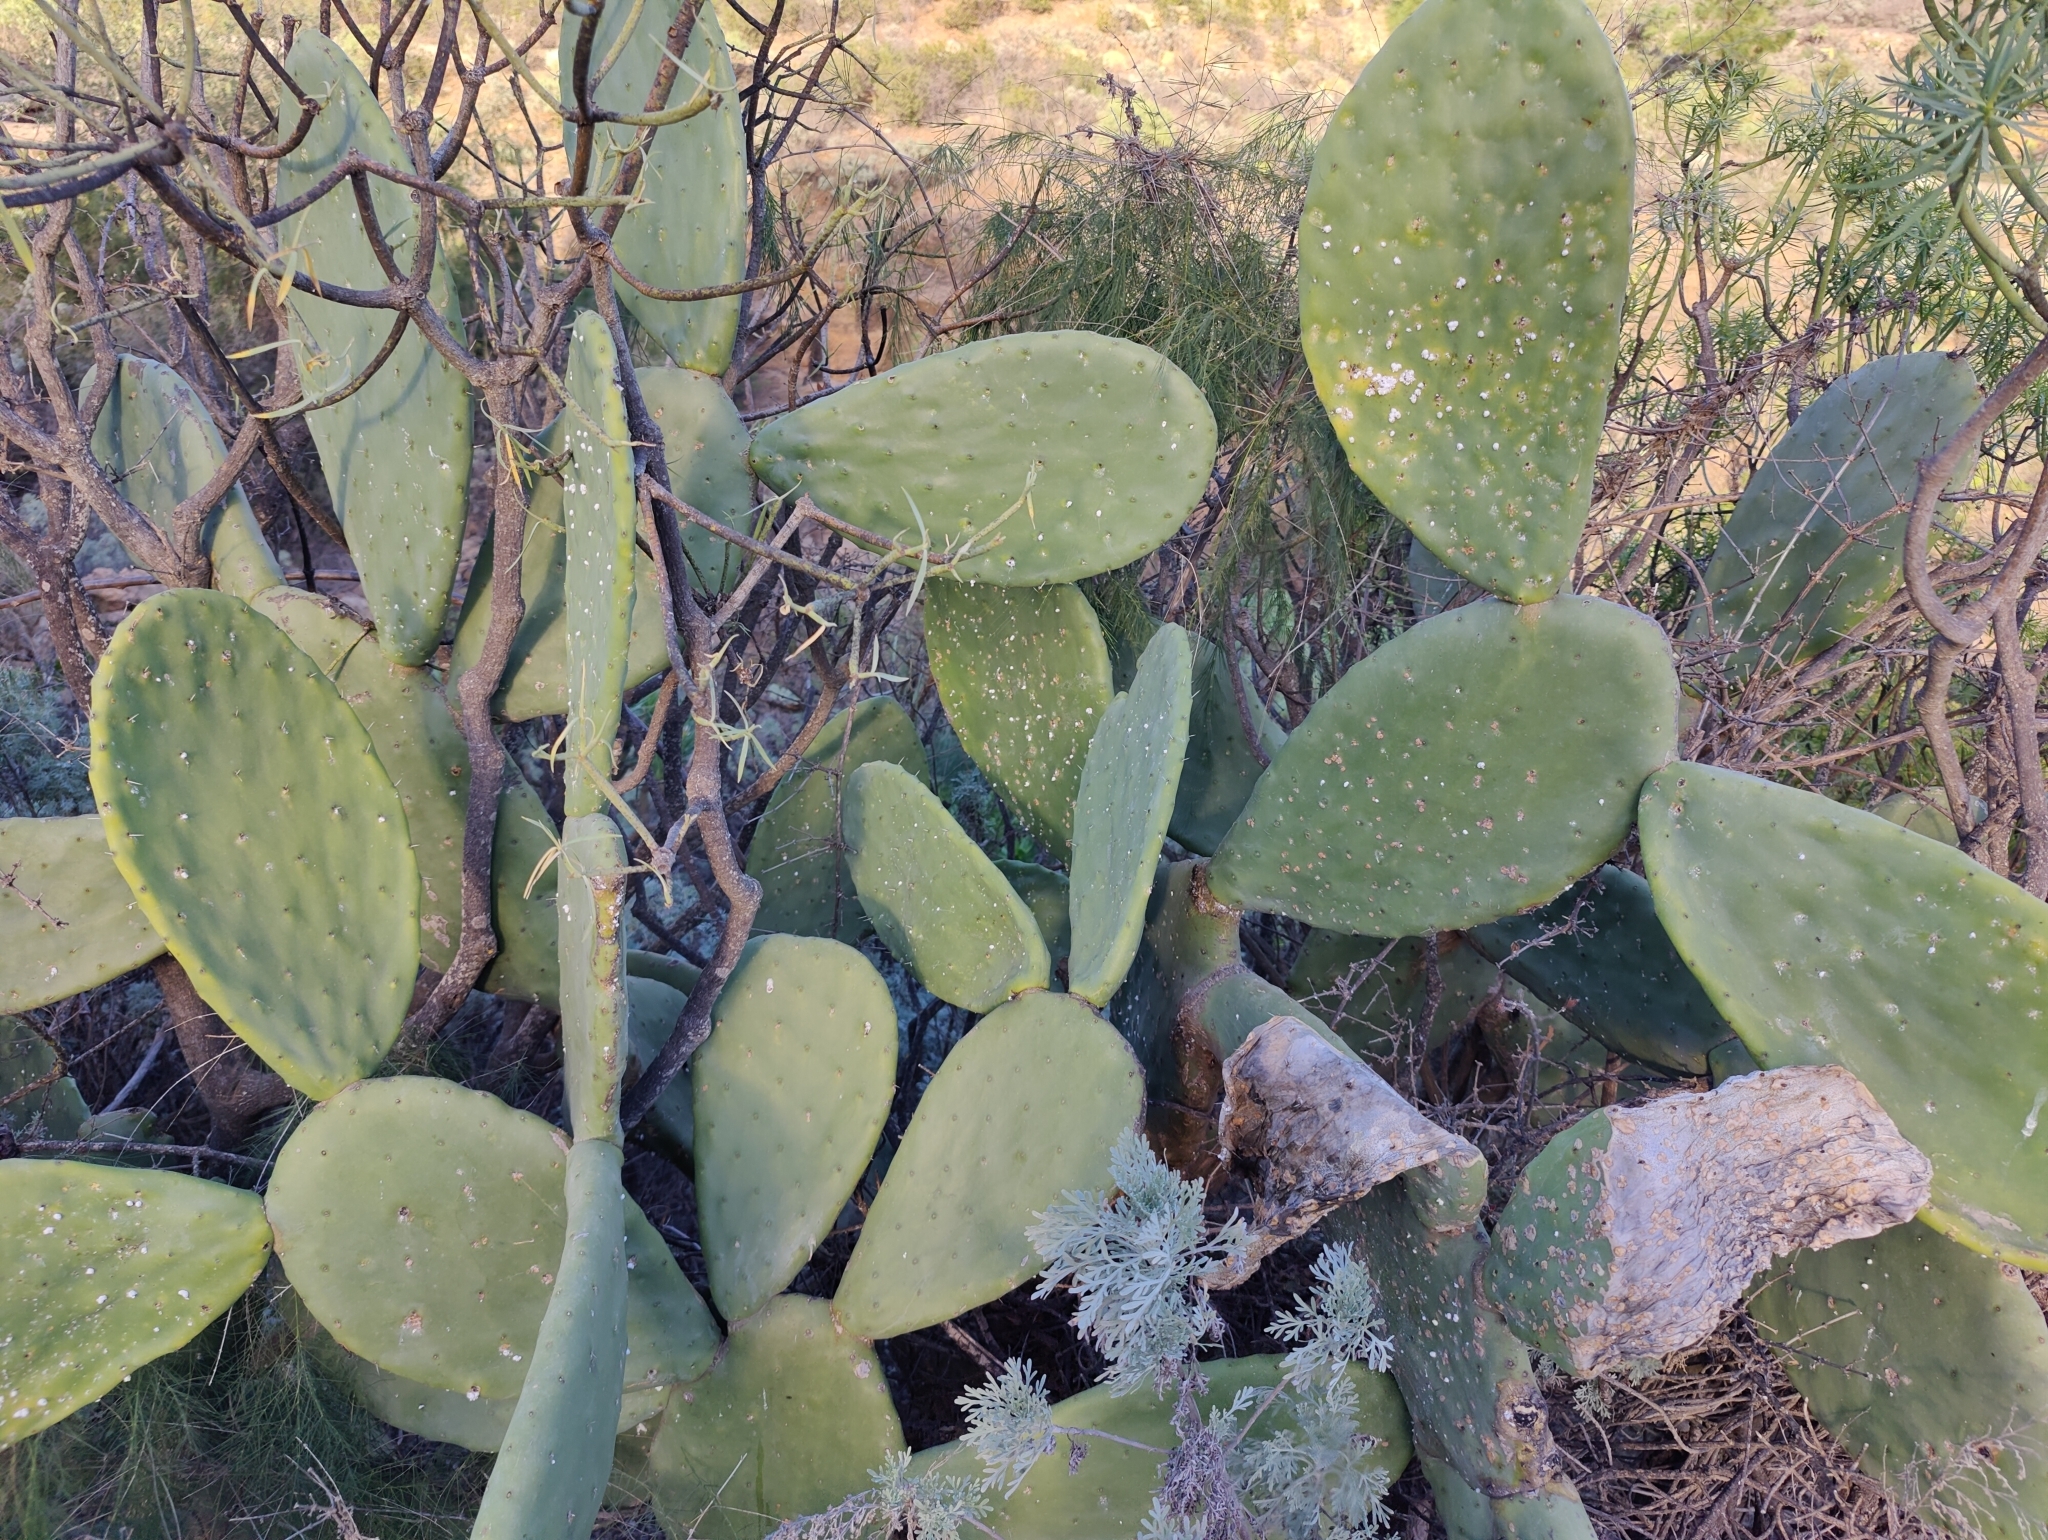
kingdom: Plantae
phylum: Tracheophyta
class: Magnoliopsida
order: Caryophyllales
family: Cactaceae
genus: Opuntia
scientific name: Opuntia ficus-indica
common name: Barbary fig
